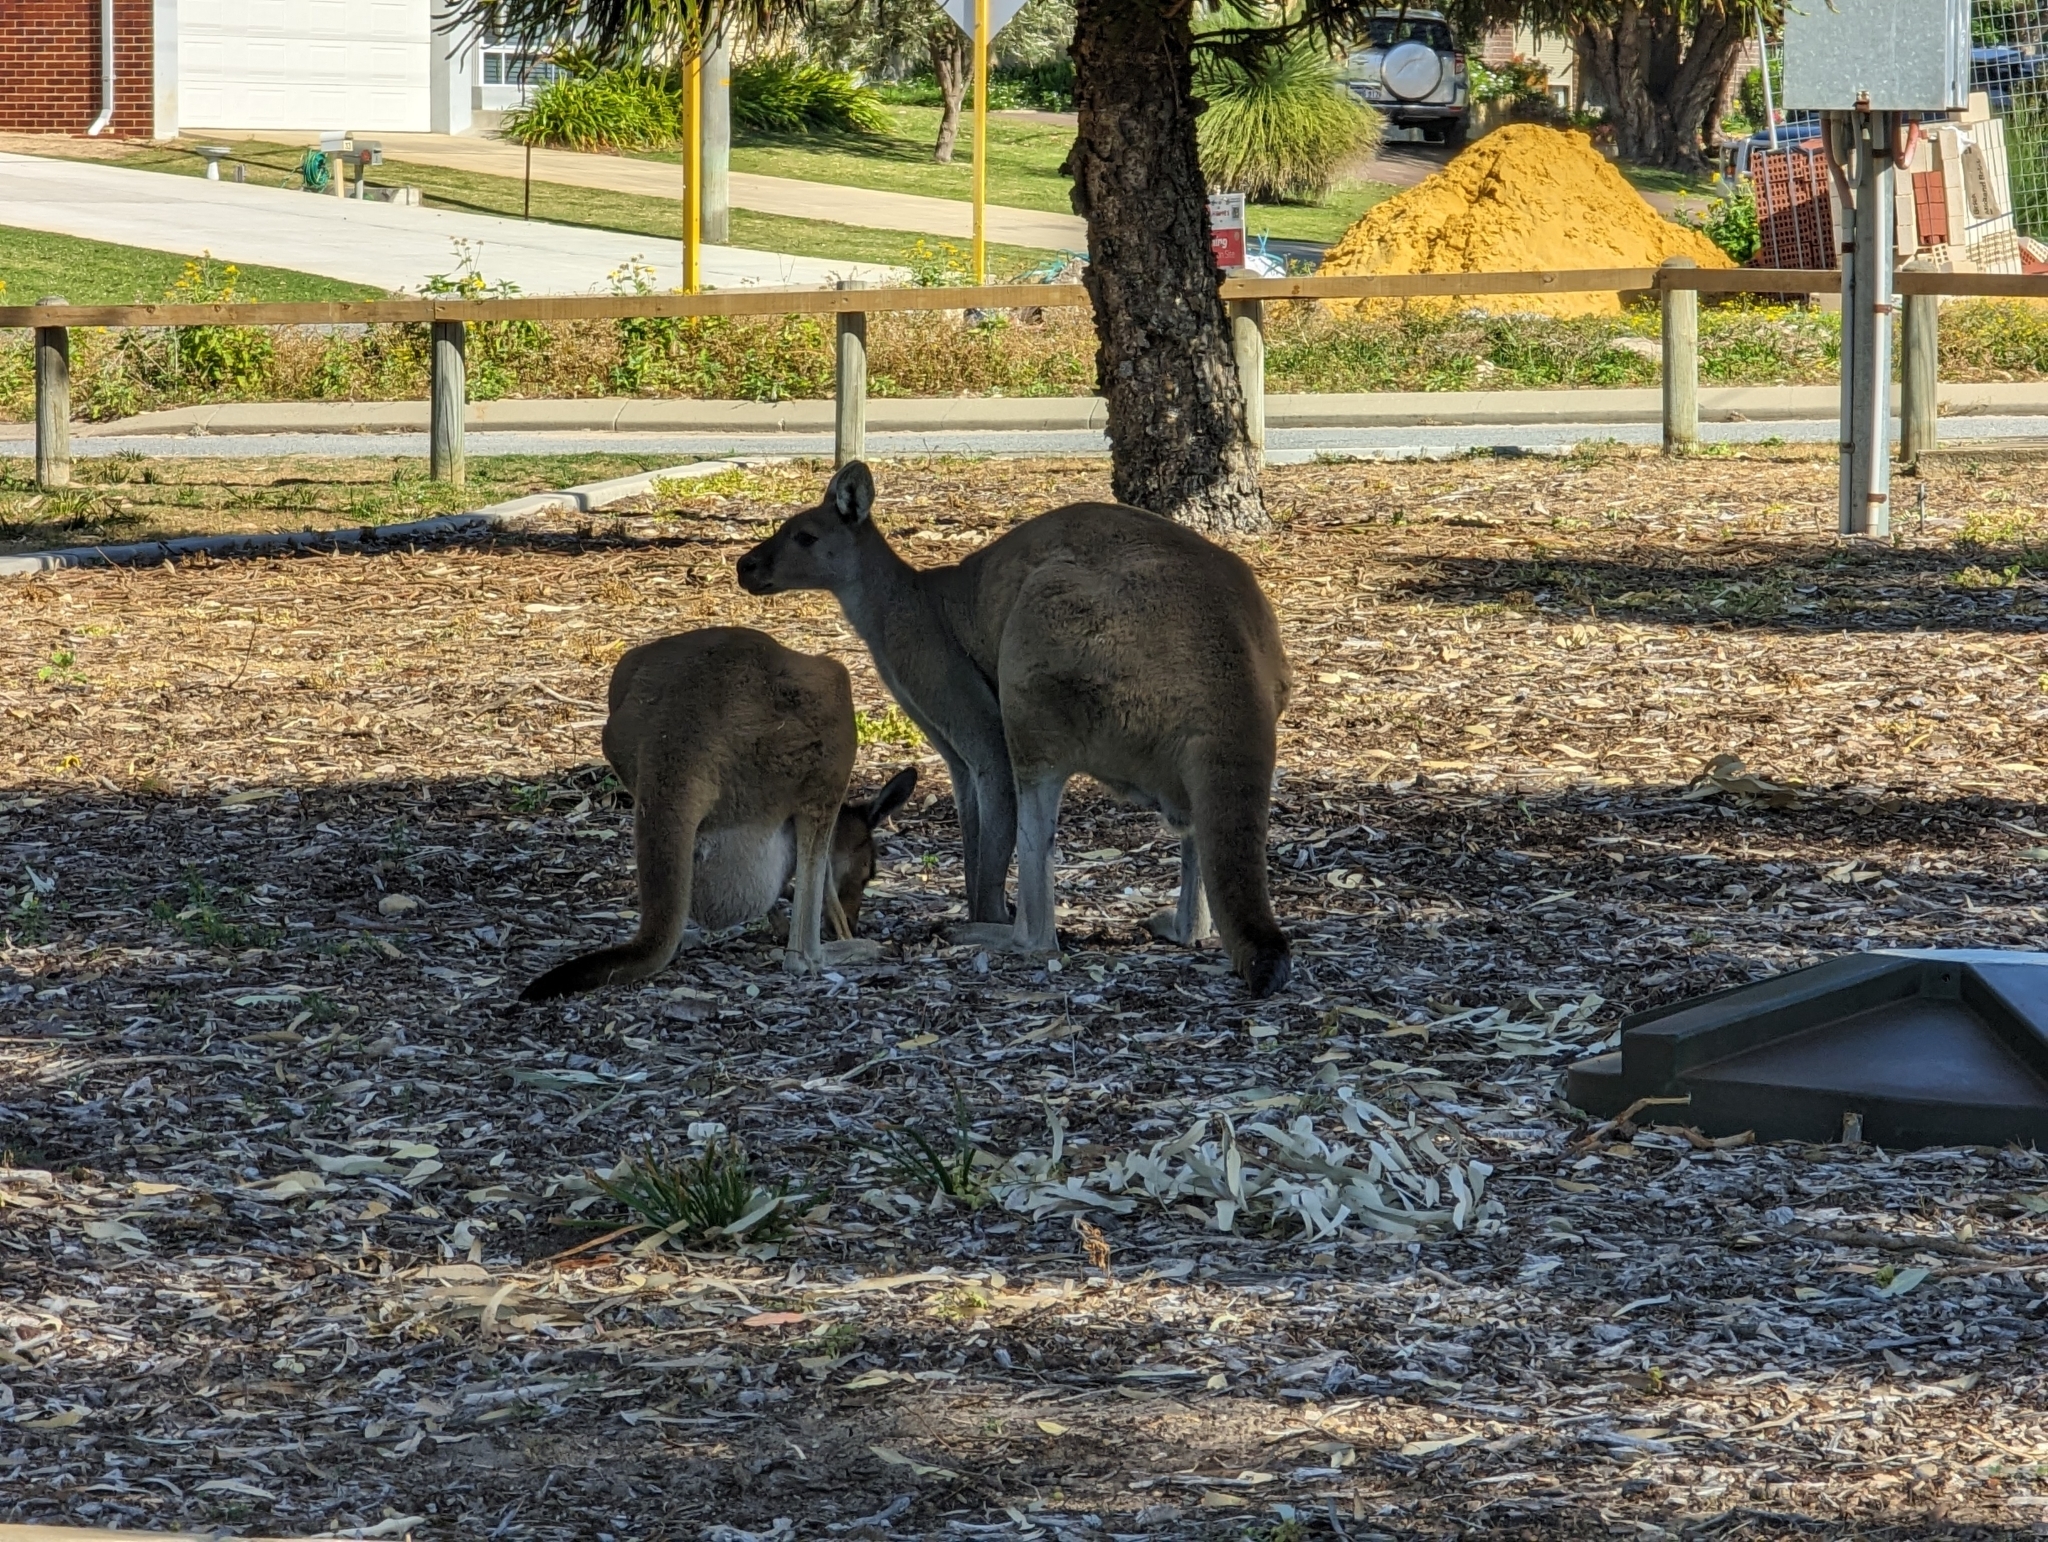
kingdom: Animalia
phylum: Chordata
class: Mammalia
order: Diprotodontia
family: Macropodidae
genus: Macropus
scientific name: Macropus fuliginosus
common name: Western grey kangaroo
